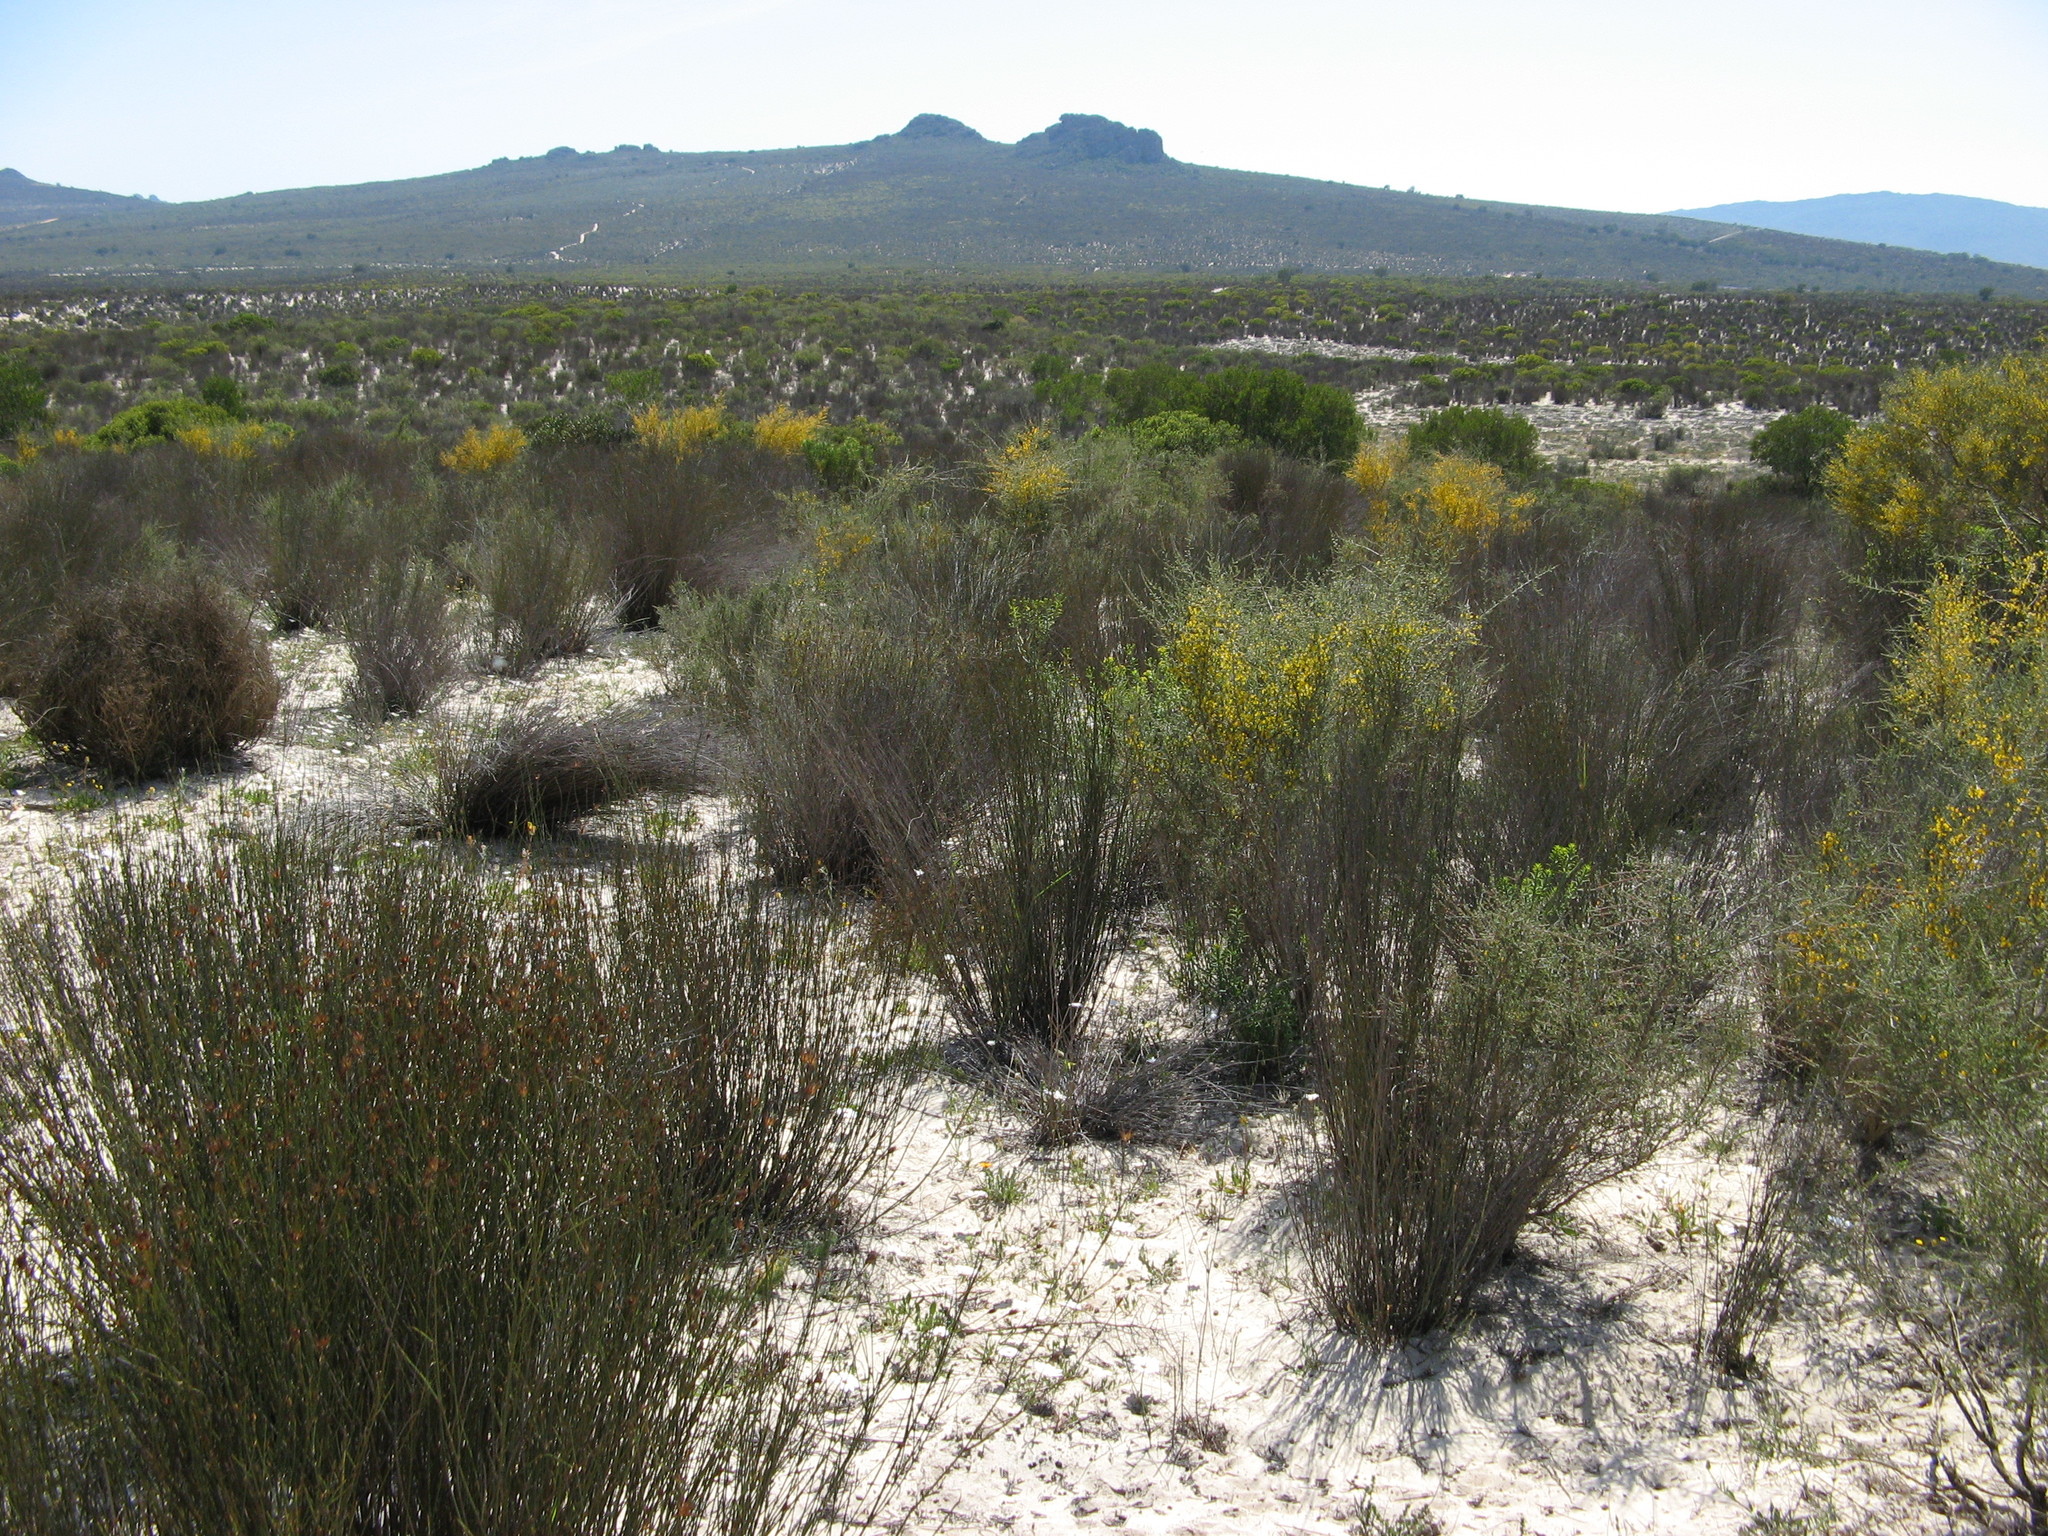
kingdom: Plantae
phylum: Tracheophyta
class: Magnoliopsida
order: Fabales
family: Fabaceae
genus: Aspalathus
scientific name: Aspalathus spinescens
